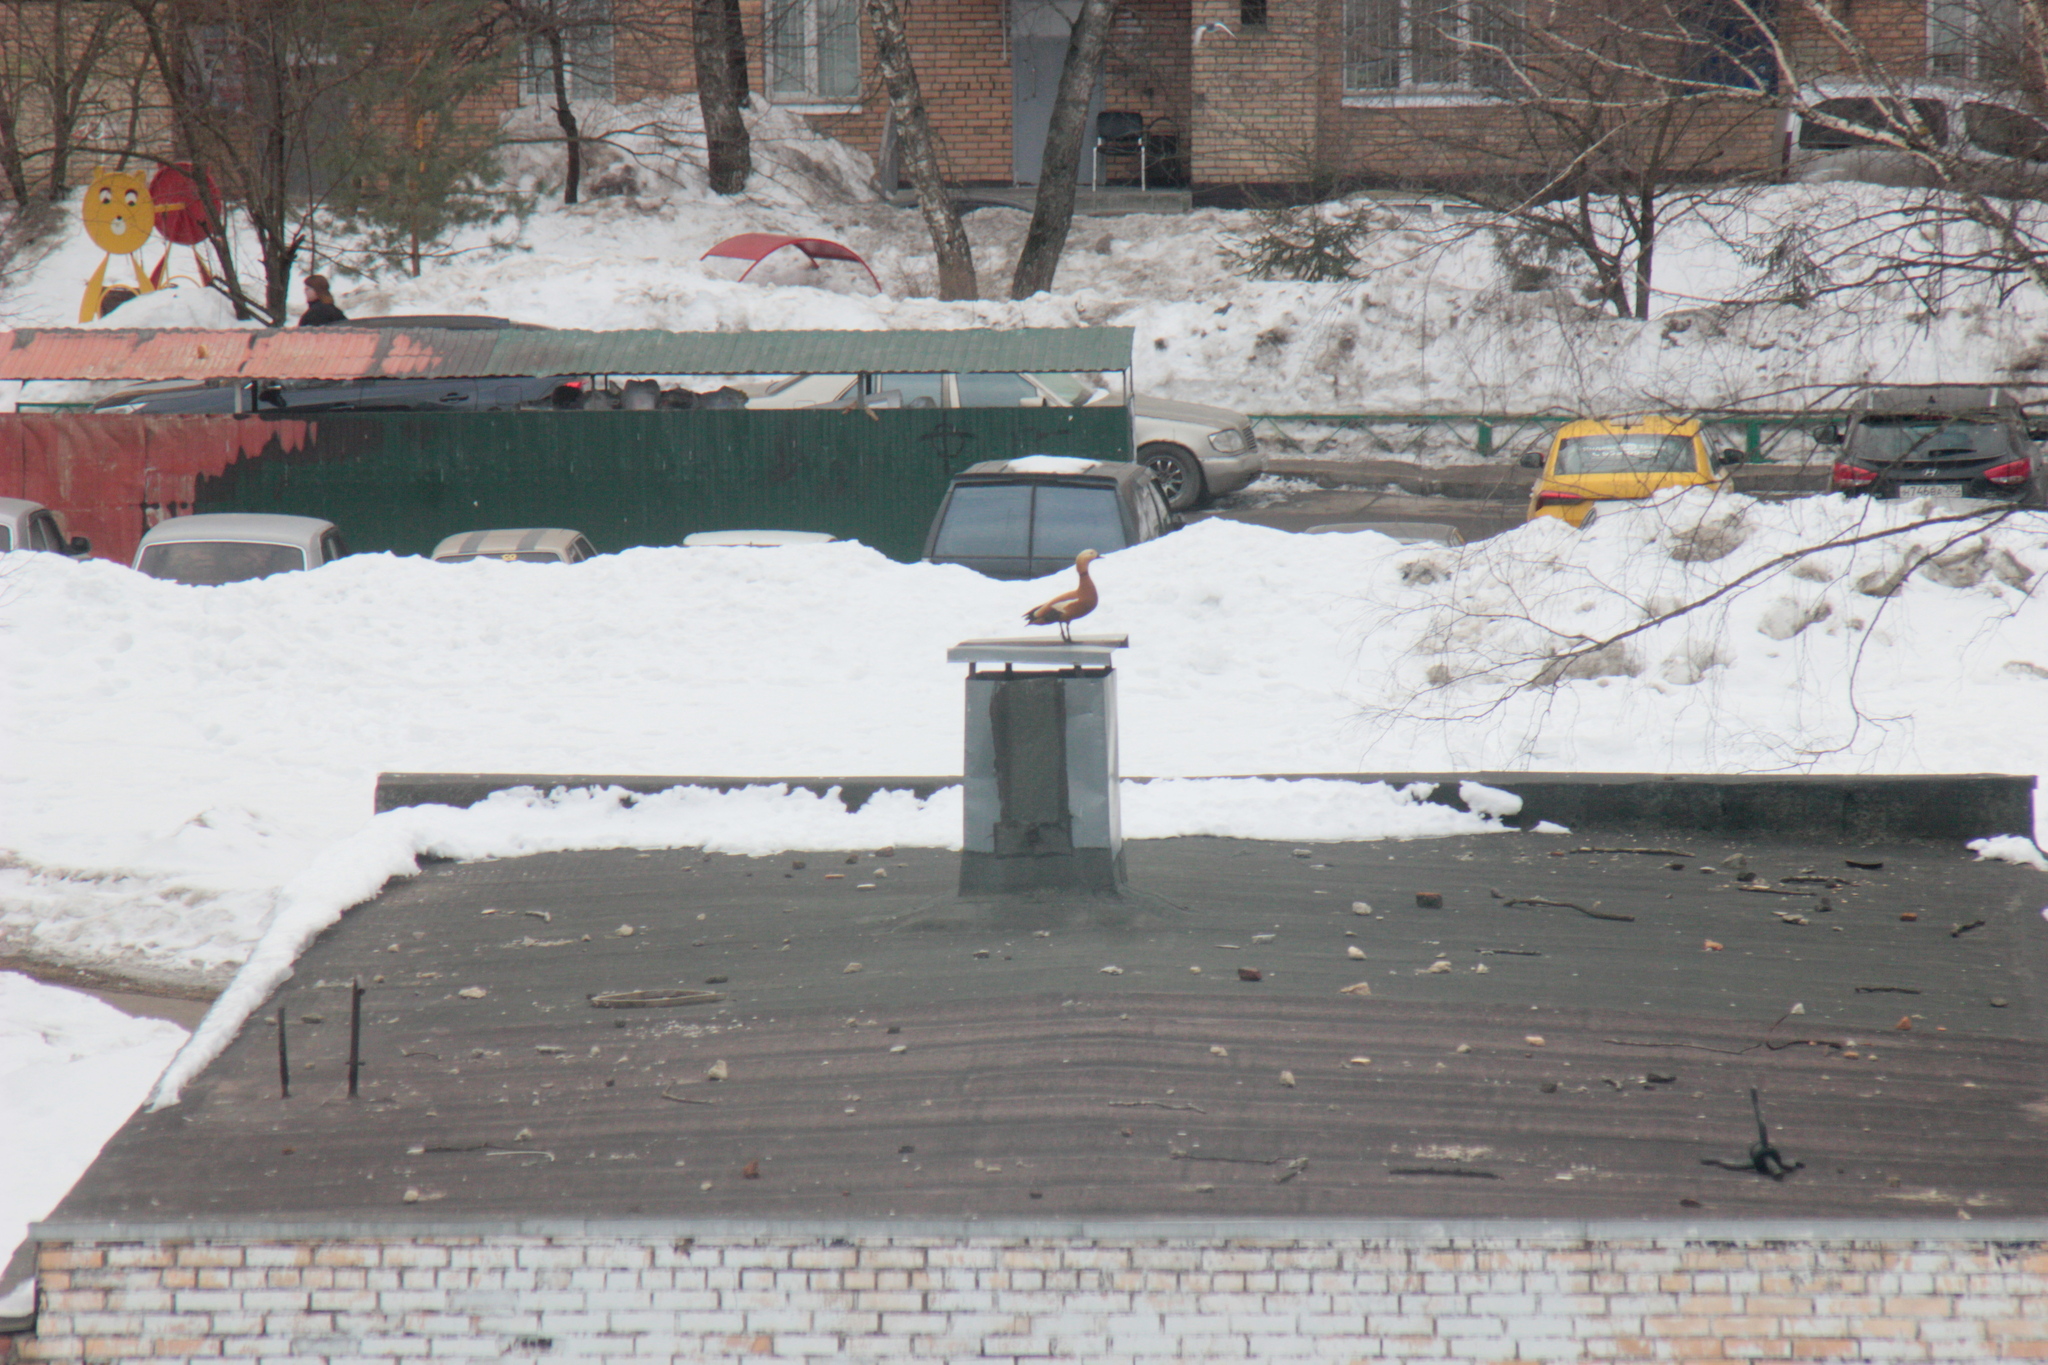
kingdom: Animalia
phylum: Chordata
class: Aves
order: Anseriformes
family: Anatidae
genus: Tadorna
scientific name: Tadorna ferruginea
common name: Ruddy shelduck
